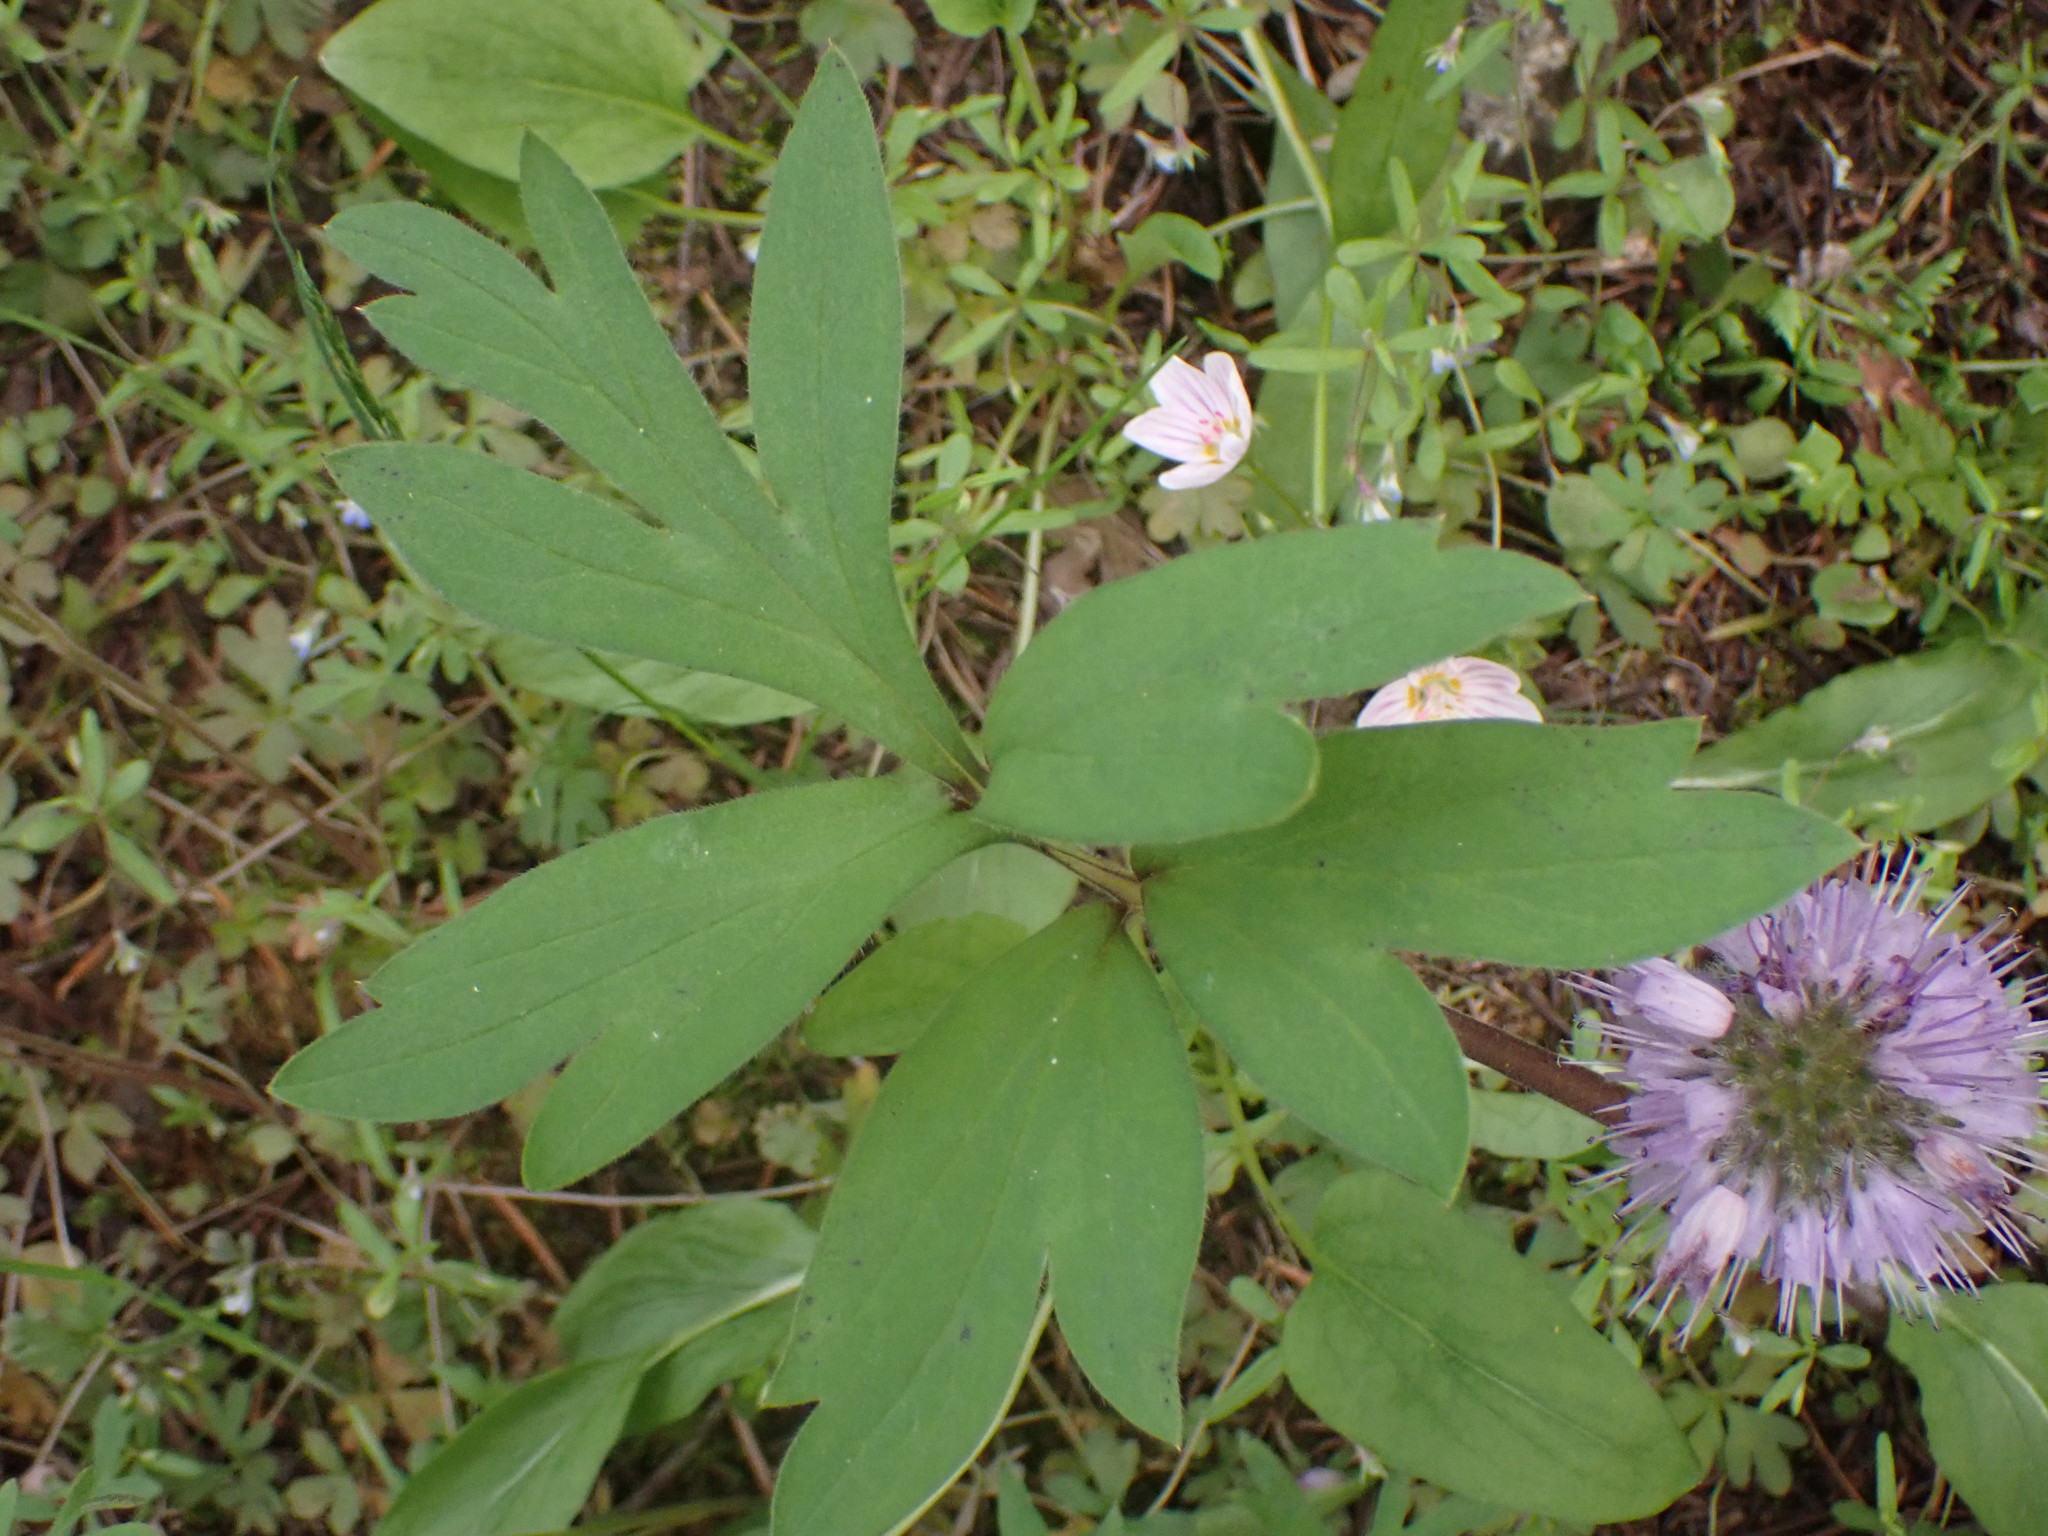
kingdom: Plantae
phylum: Tracheophyta
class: Magnoliopsida
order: Boraginales
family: Hydrophyllaceae
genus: Hydrophyllum
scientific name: Hydrophyllum capitatum
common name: Woollen-breeches
